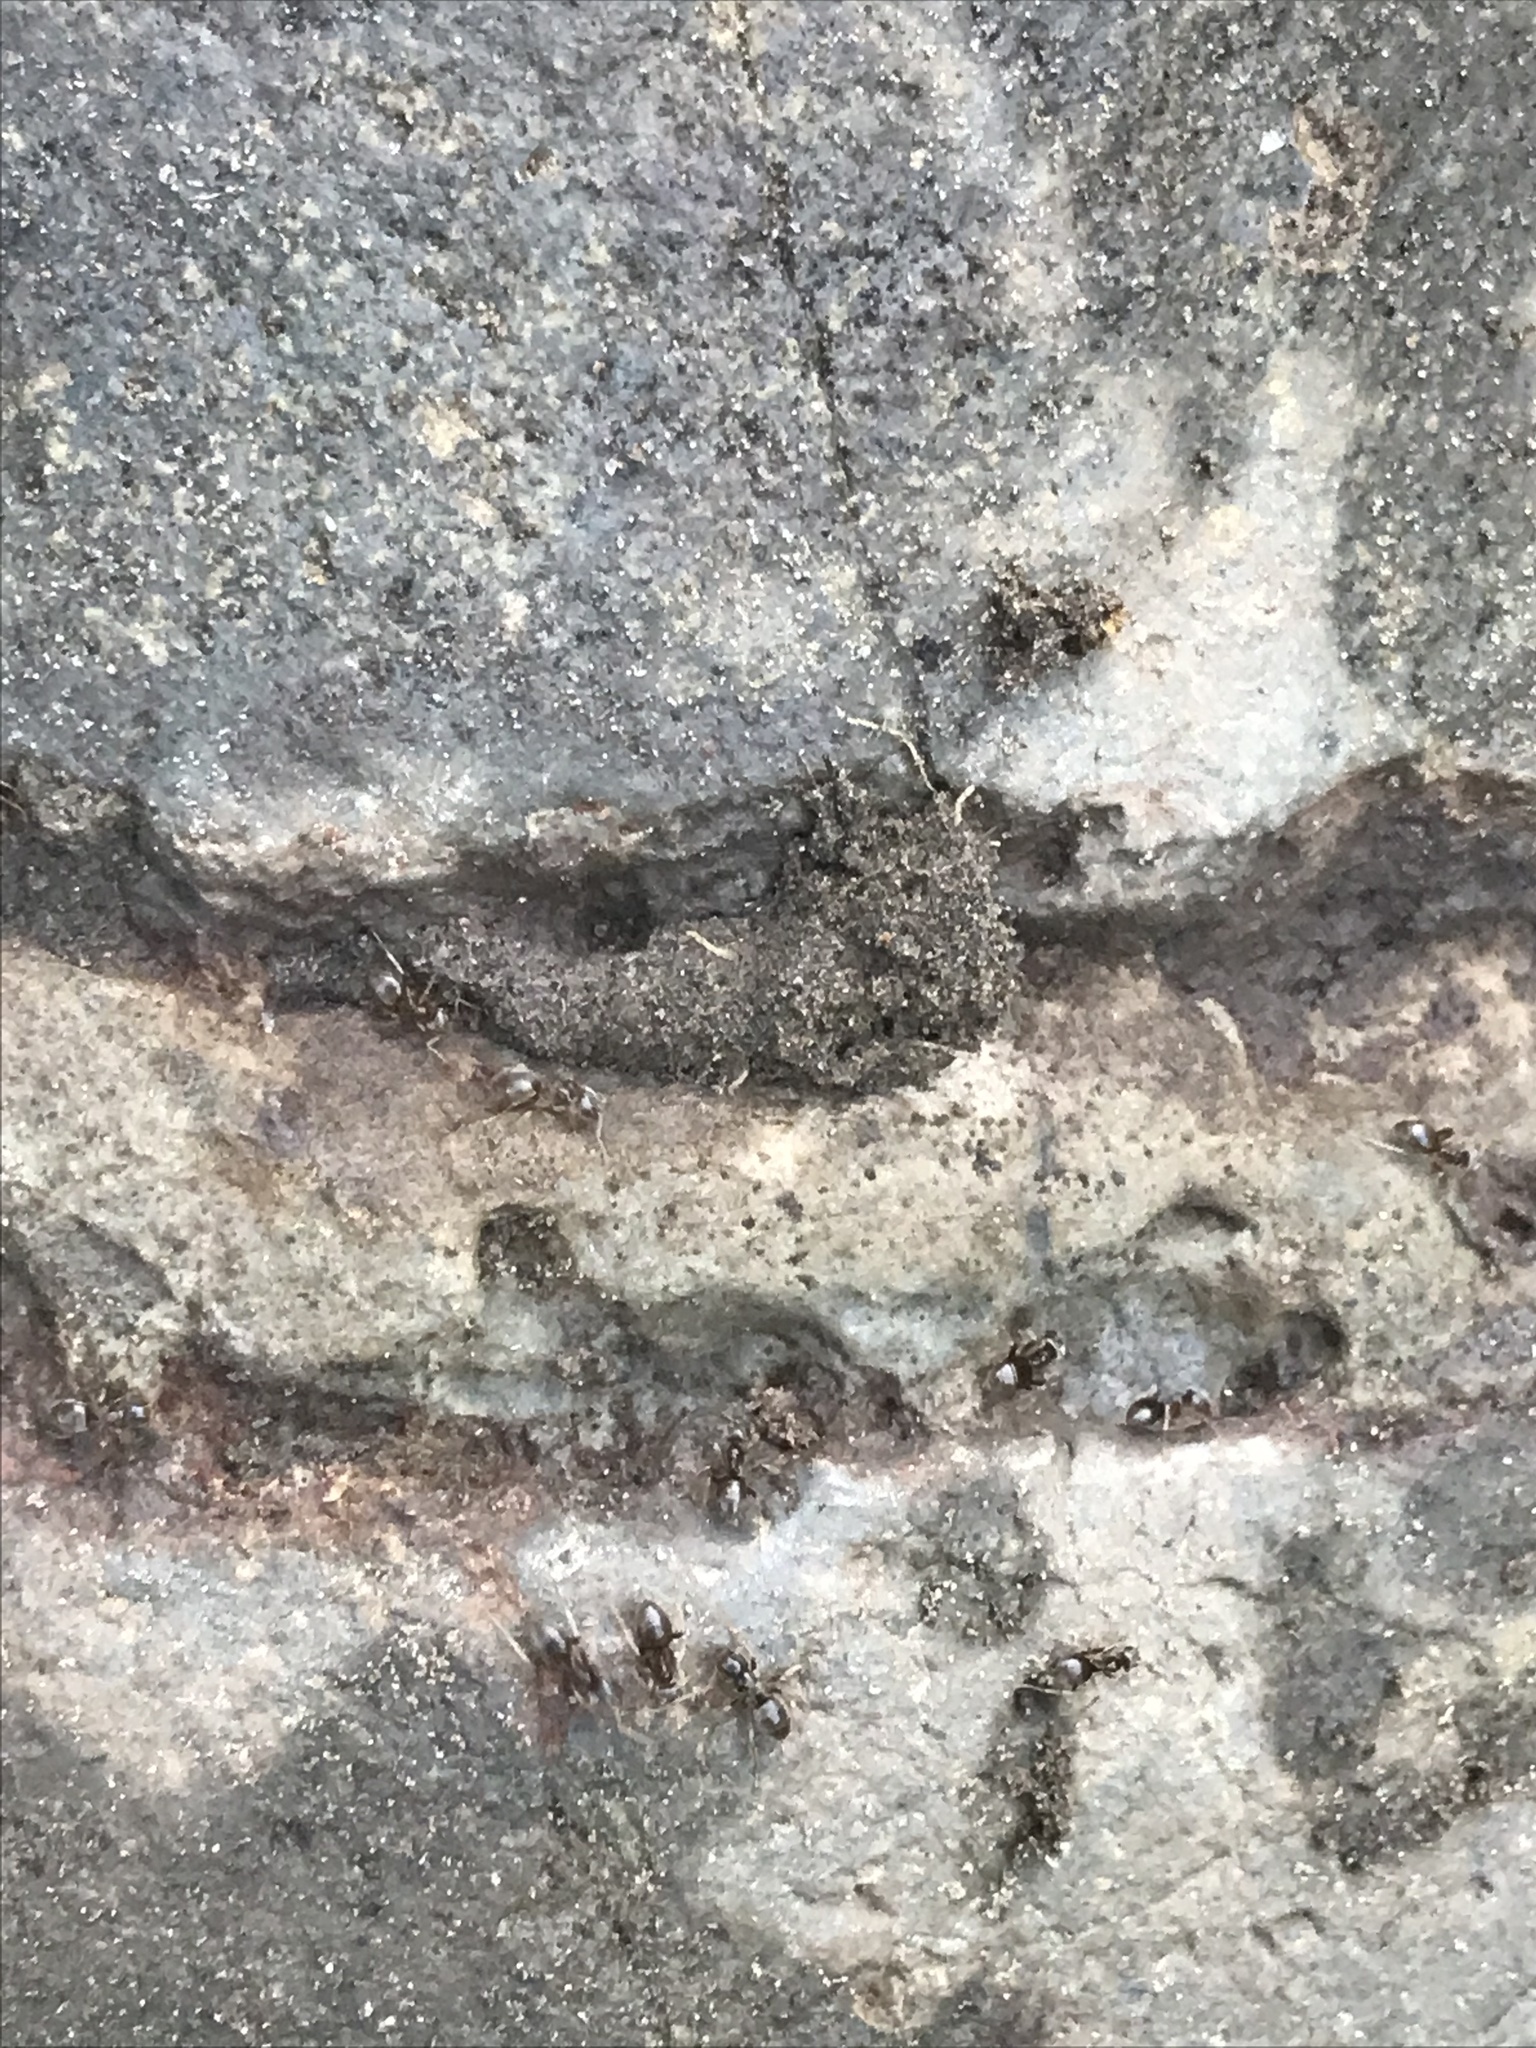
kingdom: Animalia
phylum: Arthropoda
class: Insecta
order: Hymenoptera
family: Formicidae
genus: Tapinoma
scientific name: Tapinoma sessile
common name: Odorous house ant
